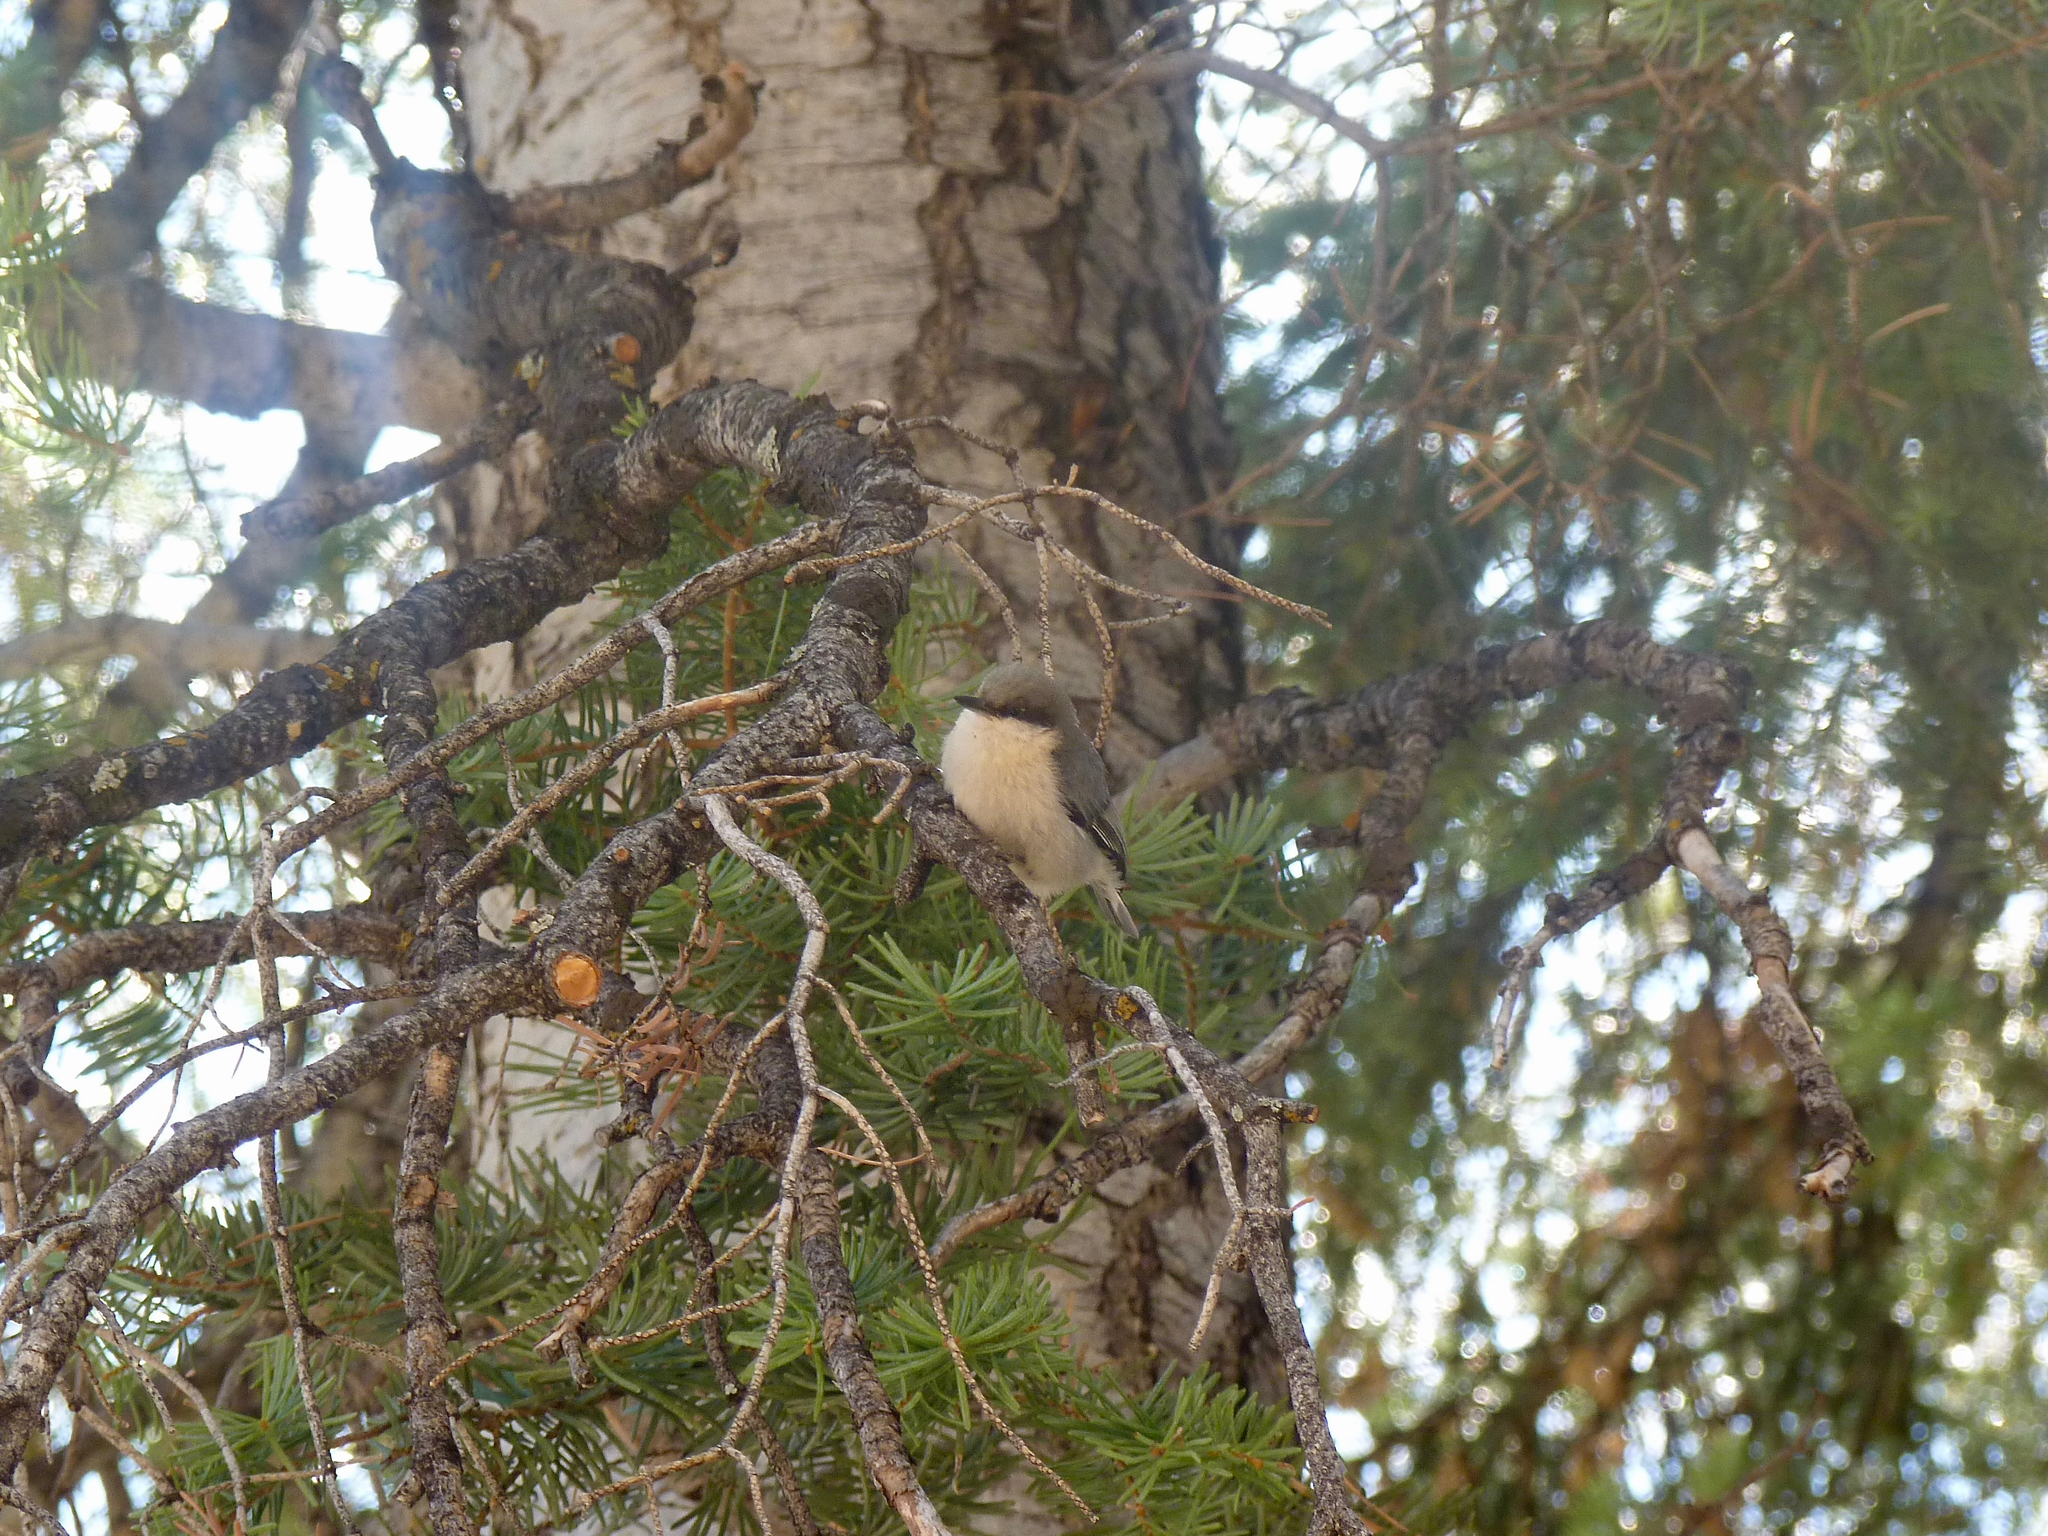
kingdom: Animalia
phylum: Chordata
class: Aves
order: Passeriformes
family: Sittidae
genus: Sitta
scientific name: Sitta pygmaea
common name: Pygmy nuthatch
